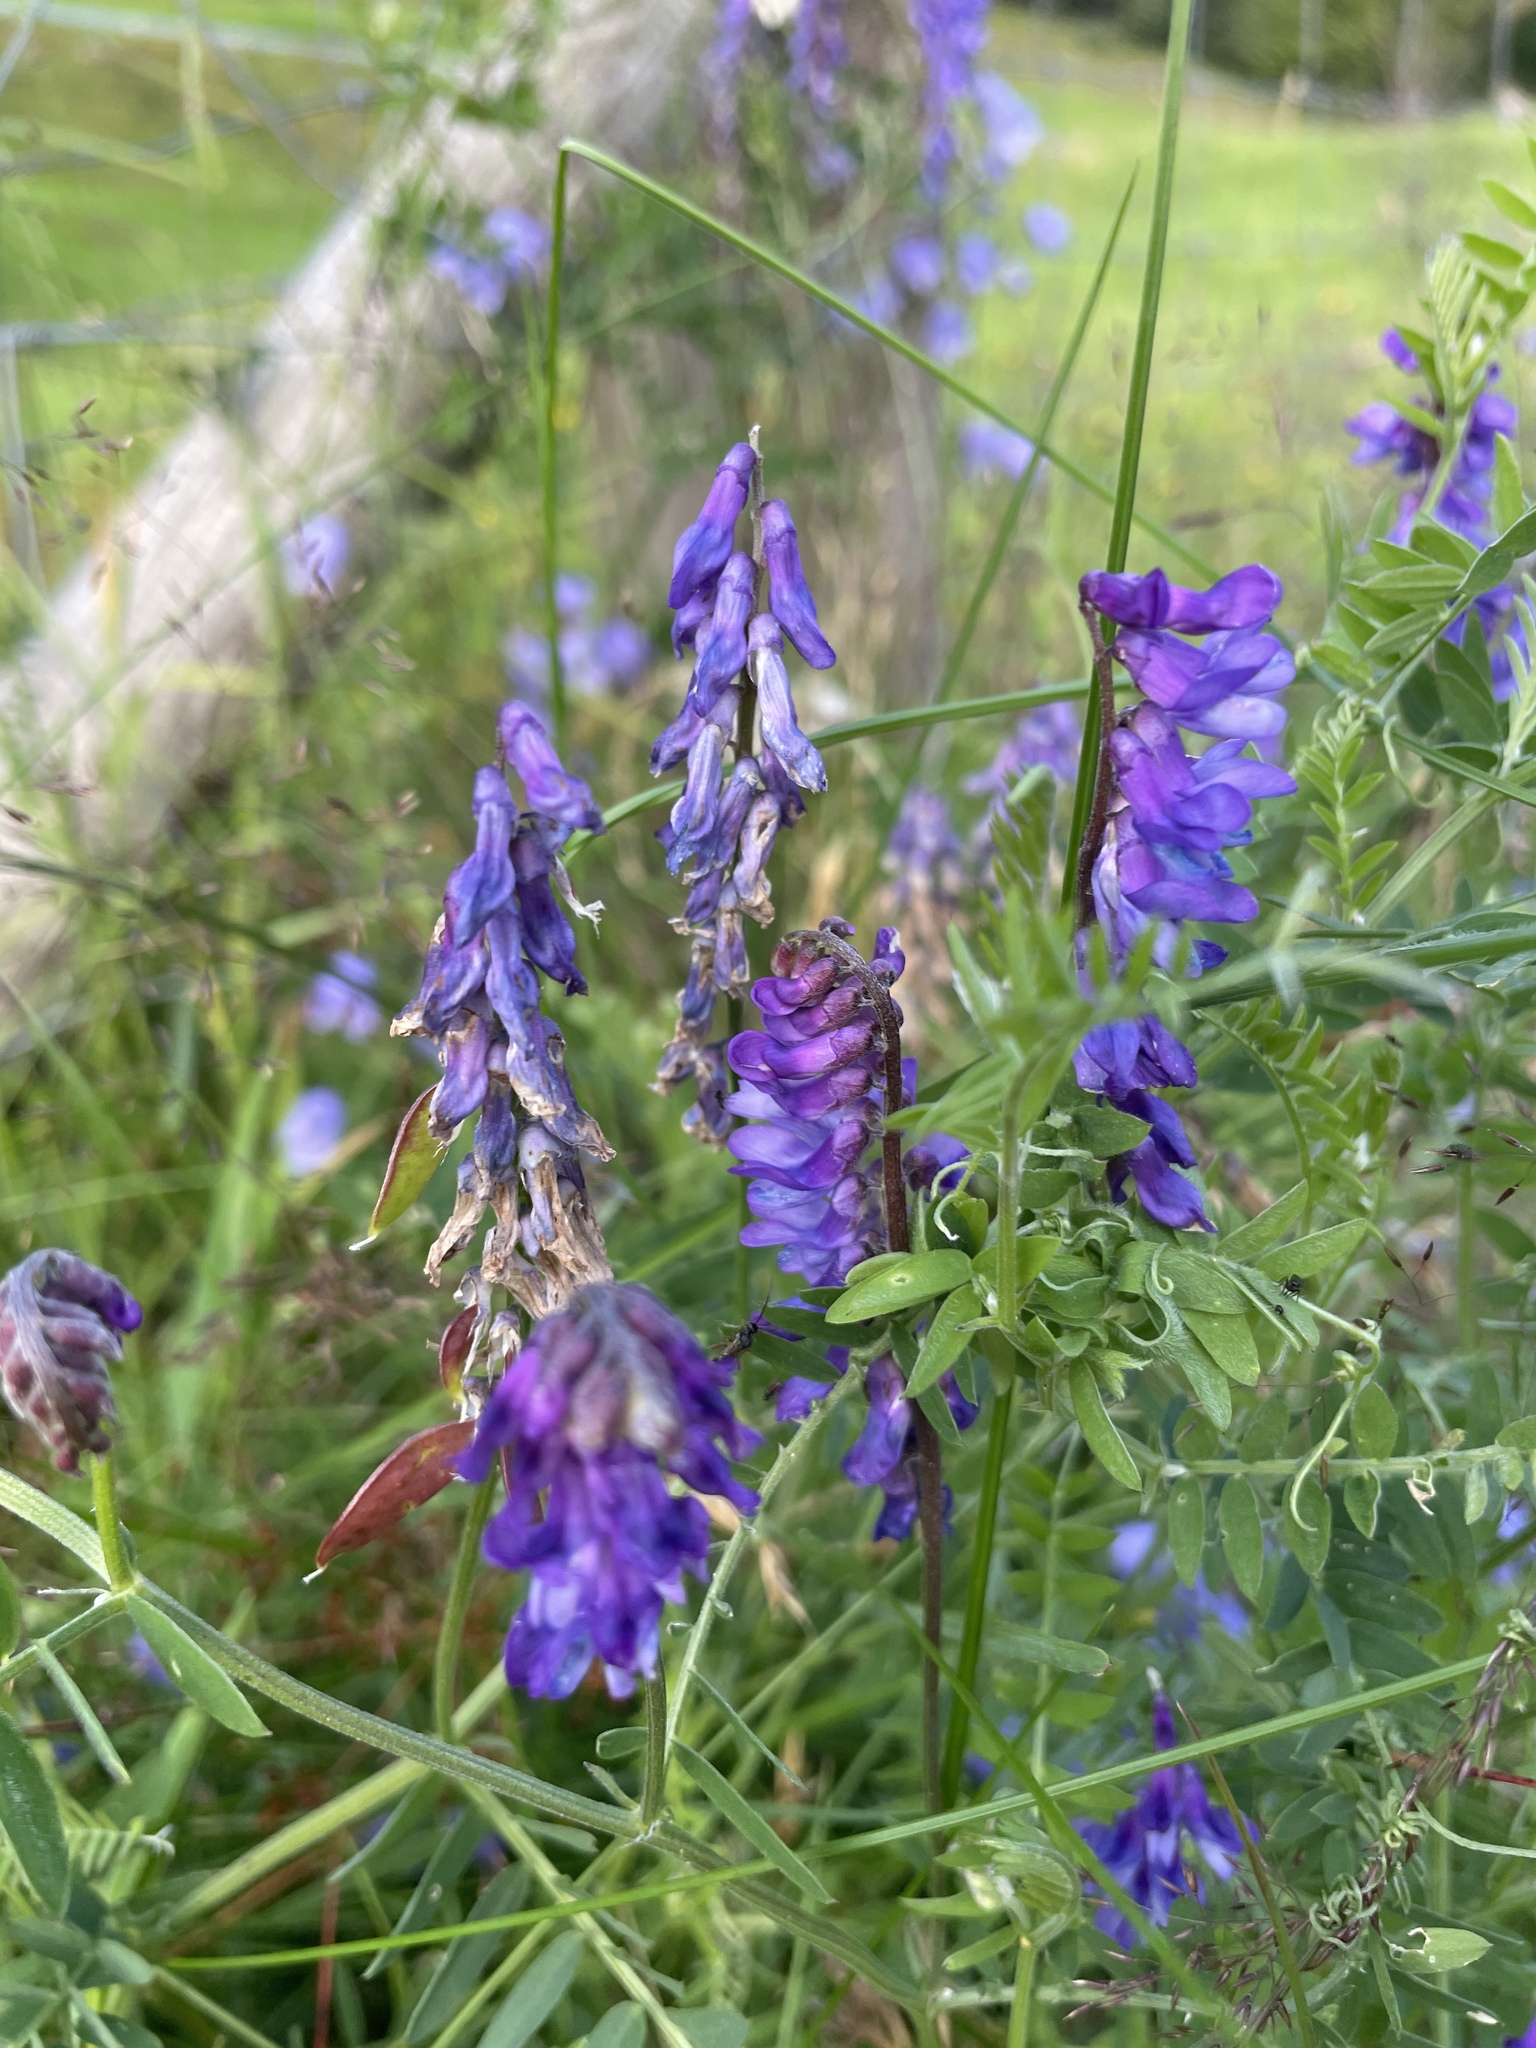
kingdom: Plantae
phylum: Tracheophyta
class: Magnoliopsida
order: Fabales
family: Fabaceae
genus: Vicia
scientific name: Vicia cracca
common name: Bird vetch
